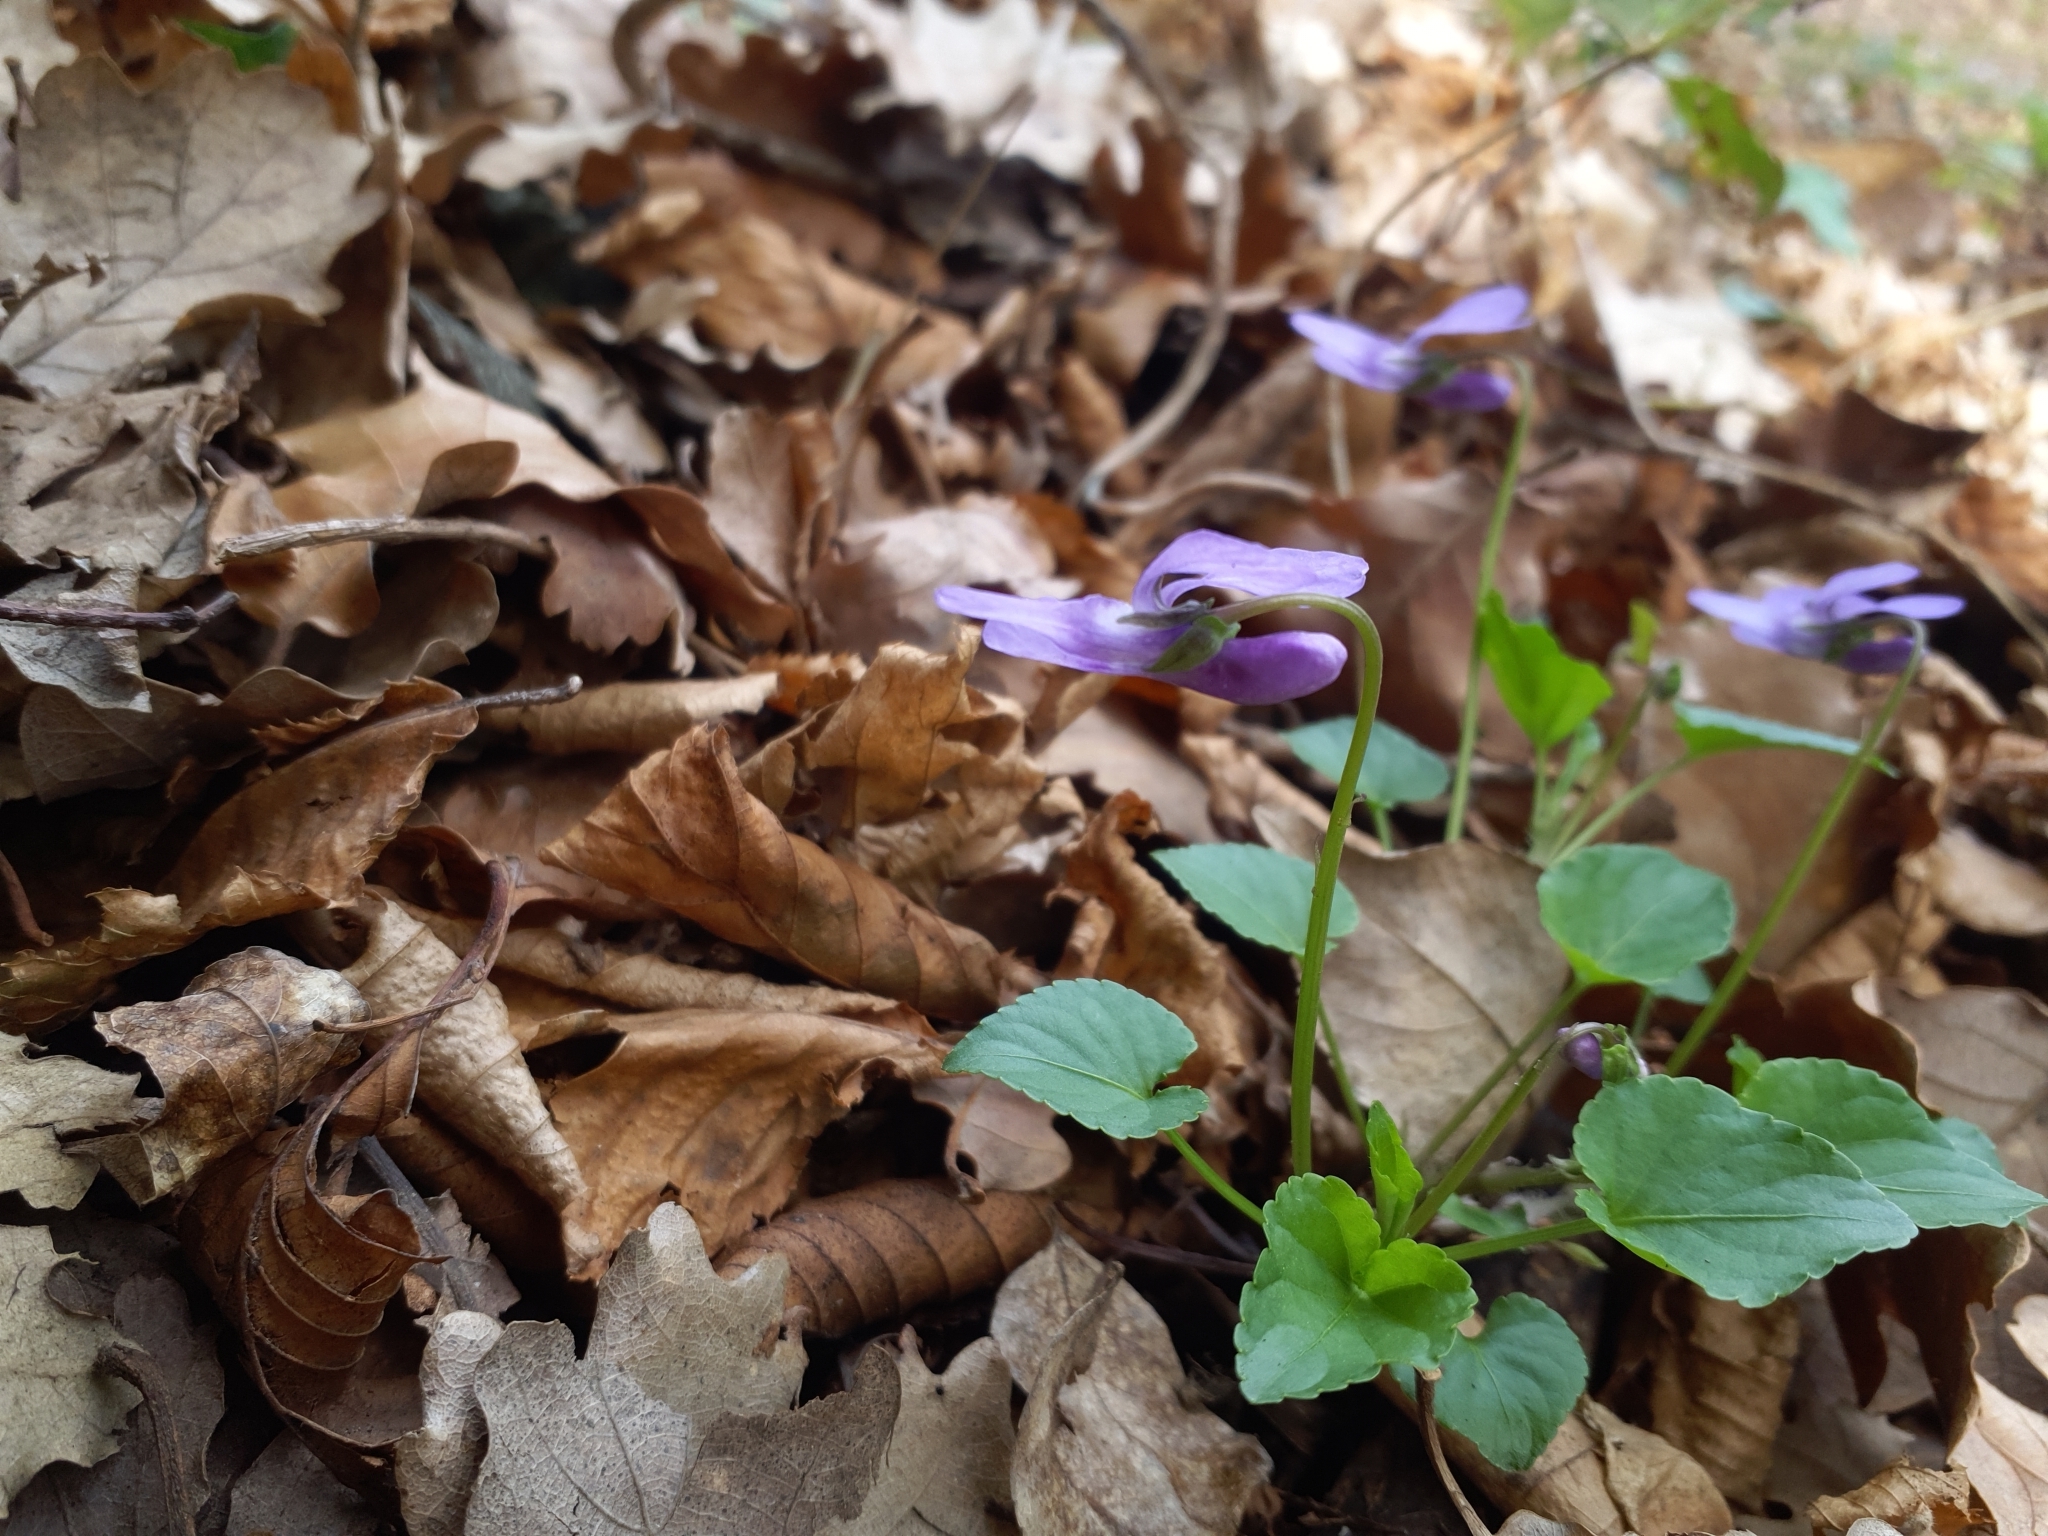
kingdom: Plantae
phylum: Tracheophyta
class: Magnoliopsida
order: Malpighiales
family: Violaceae
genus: Viola
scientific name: Viola reichenbachiana
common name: Early dog-violet
